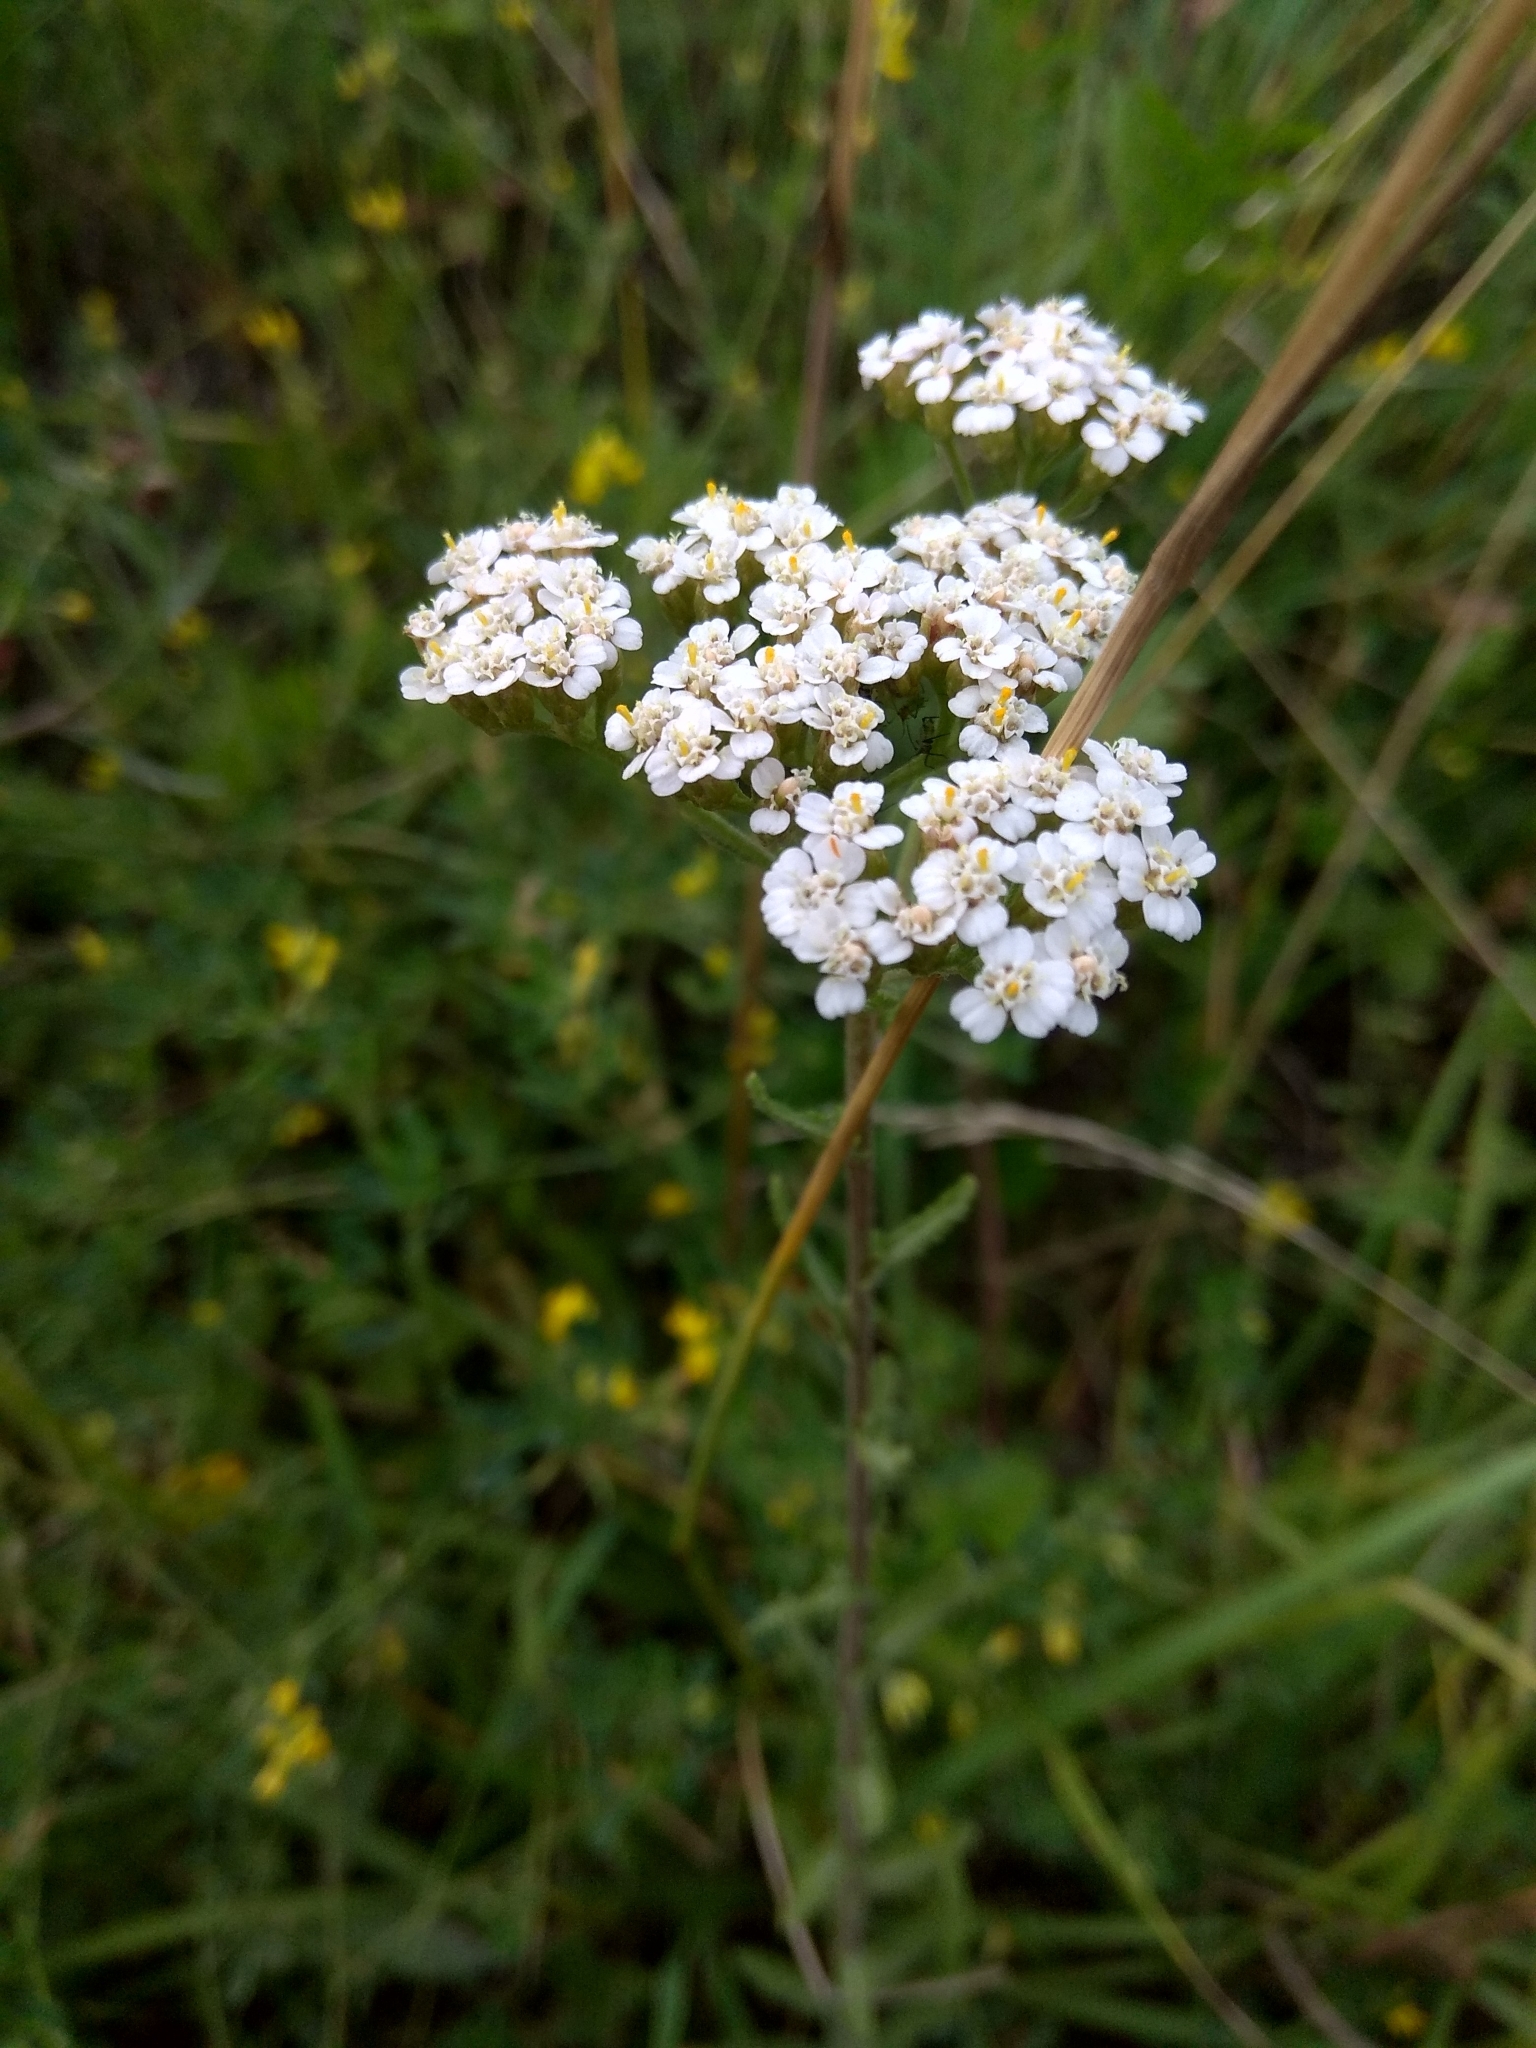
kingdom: Plantae
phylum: Tracheophyta
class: Magnoliopsida
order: Asterales
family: Asteraceae
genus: Achillea
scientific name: Achillea millefolium
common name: Yarrow
